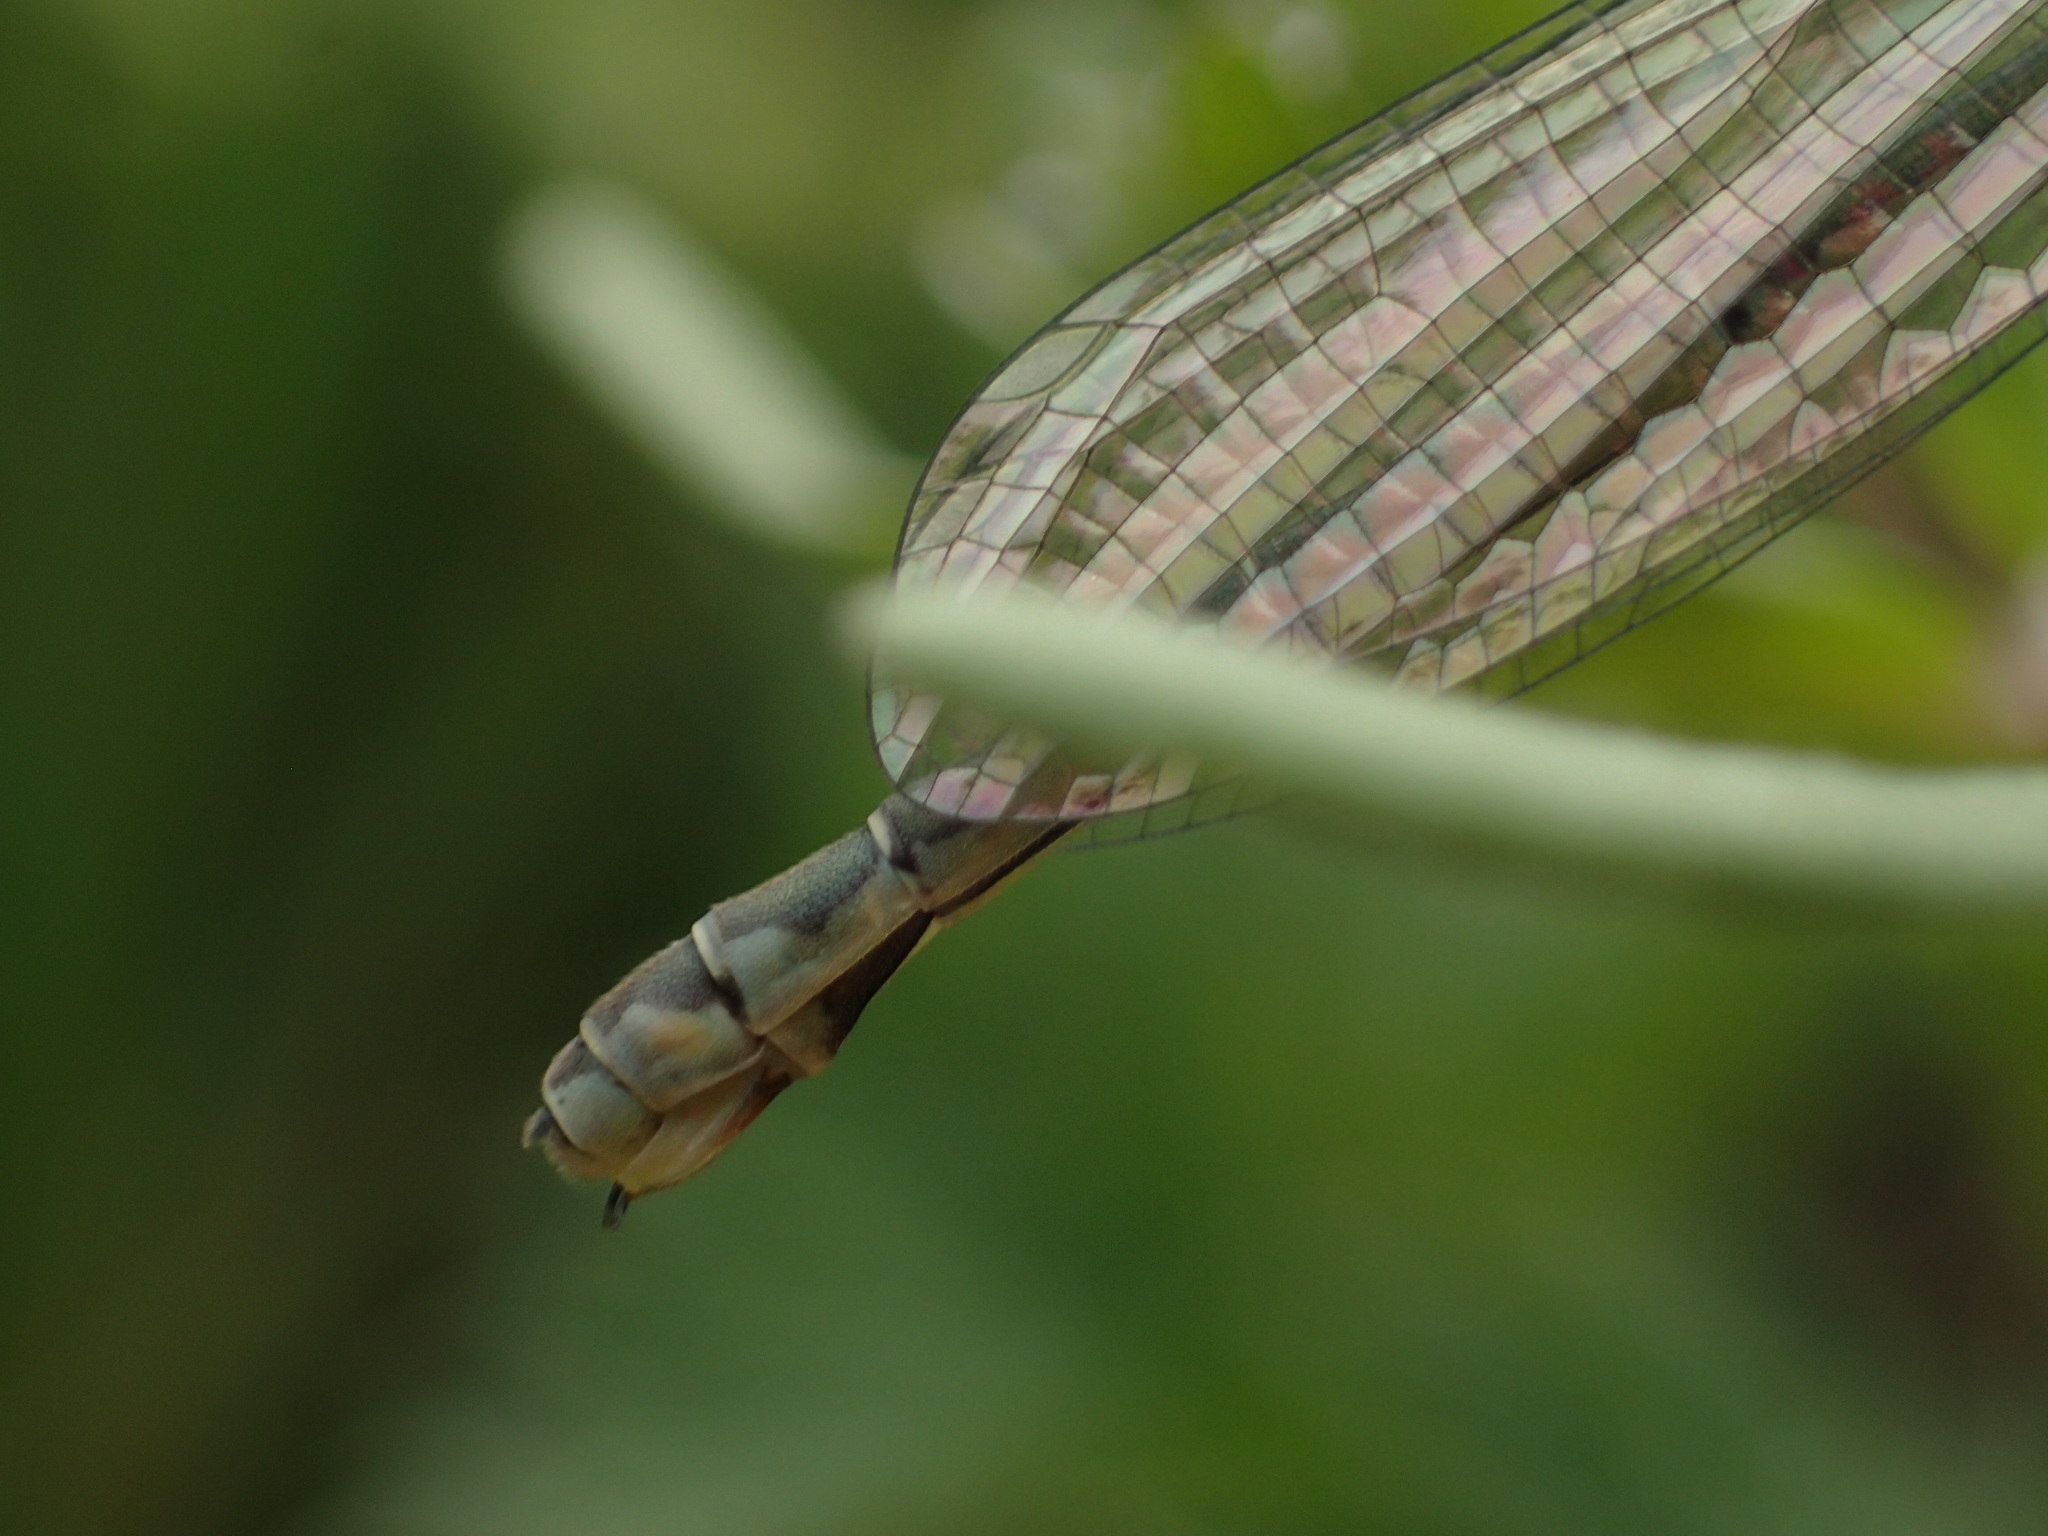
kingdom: Animalia
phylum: Arthropoda
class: Insecta
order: Odonata
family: Coenagrionidae
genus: Coenagrion
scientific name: Coenagrion puella
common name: Azure damselfly
